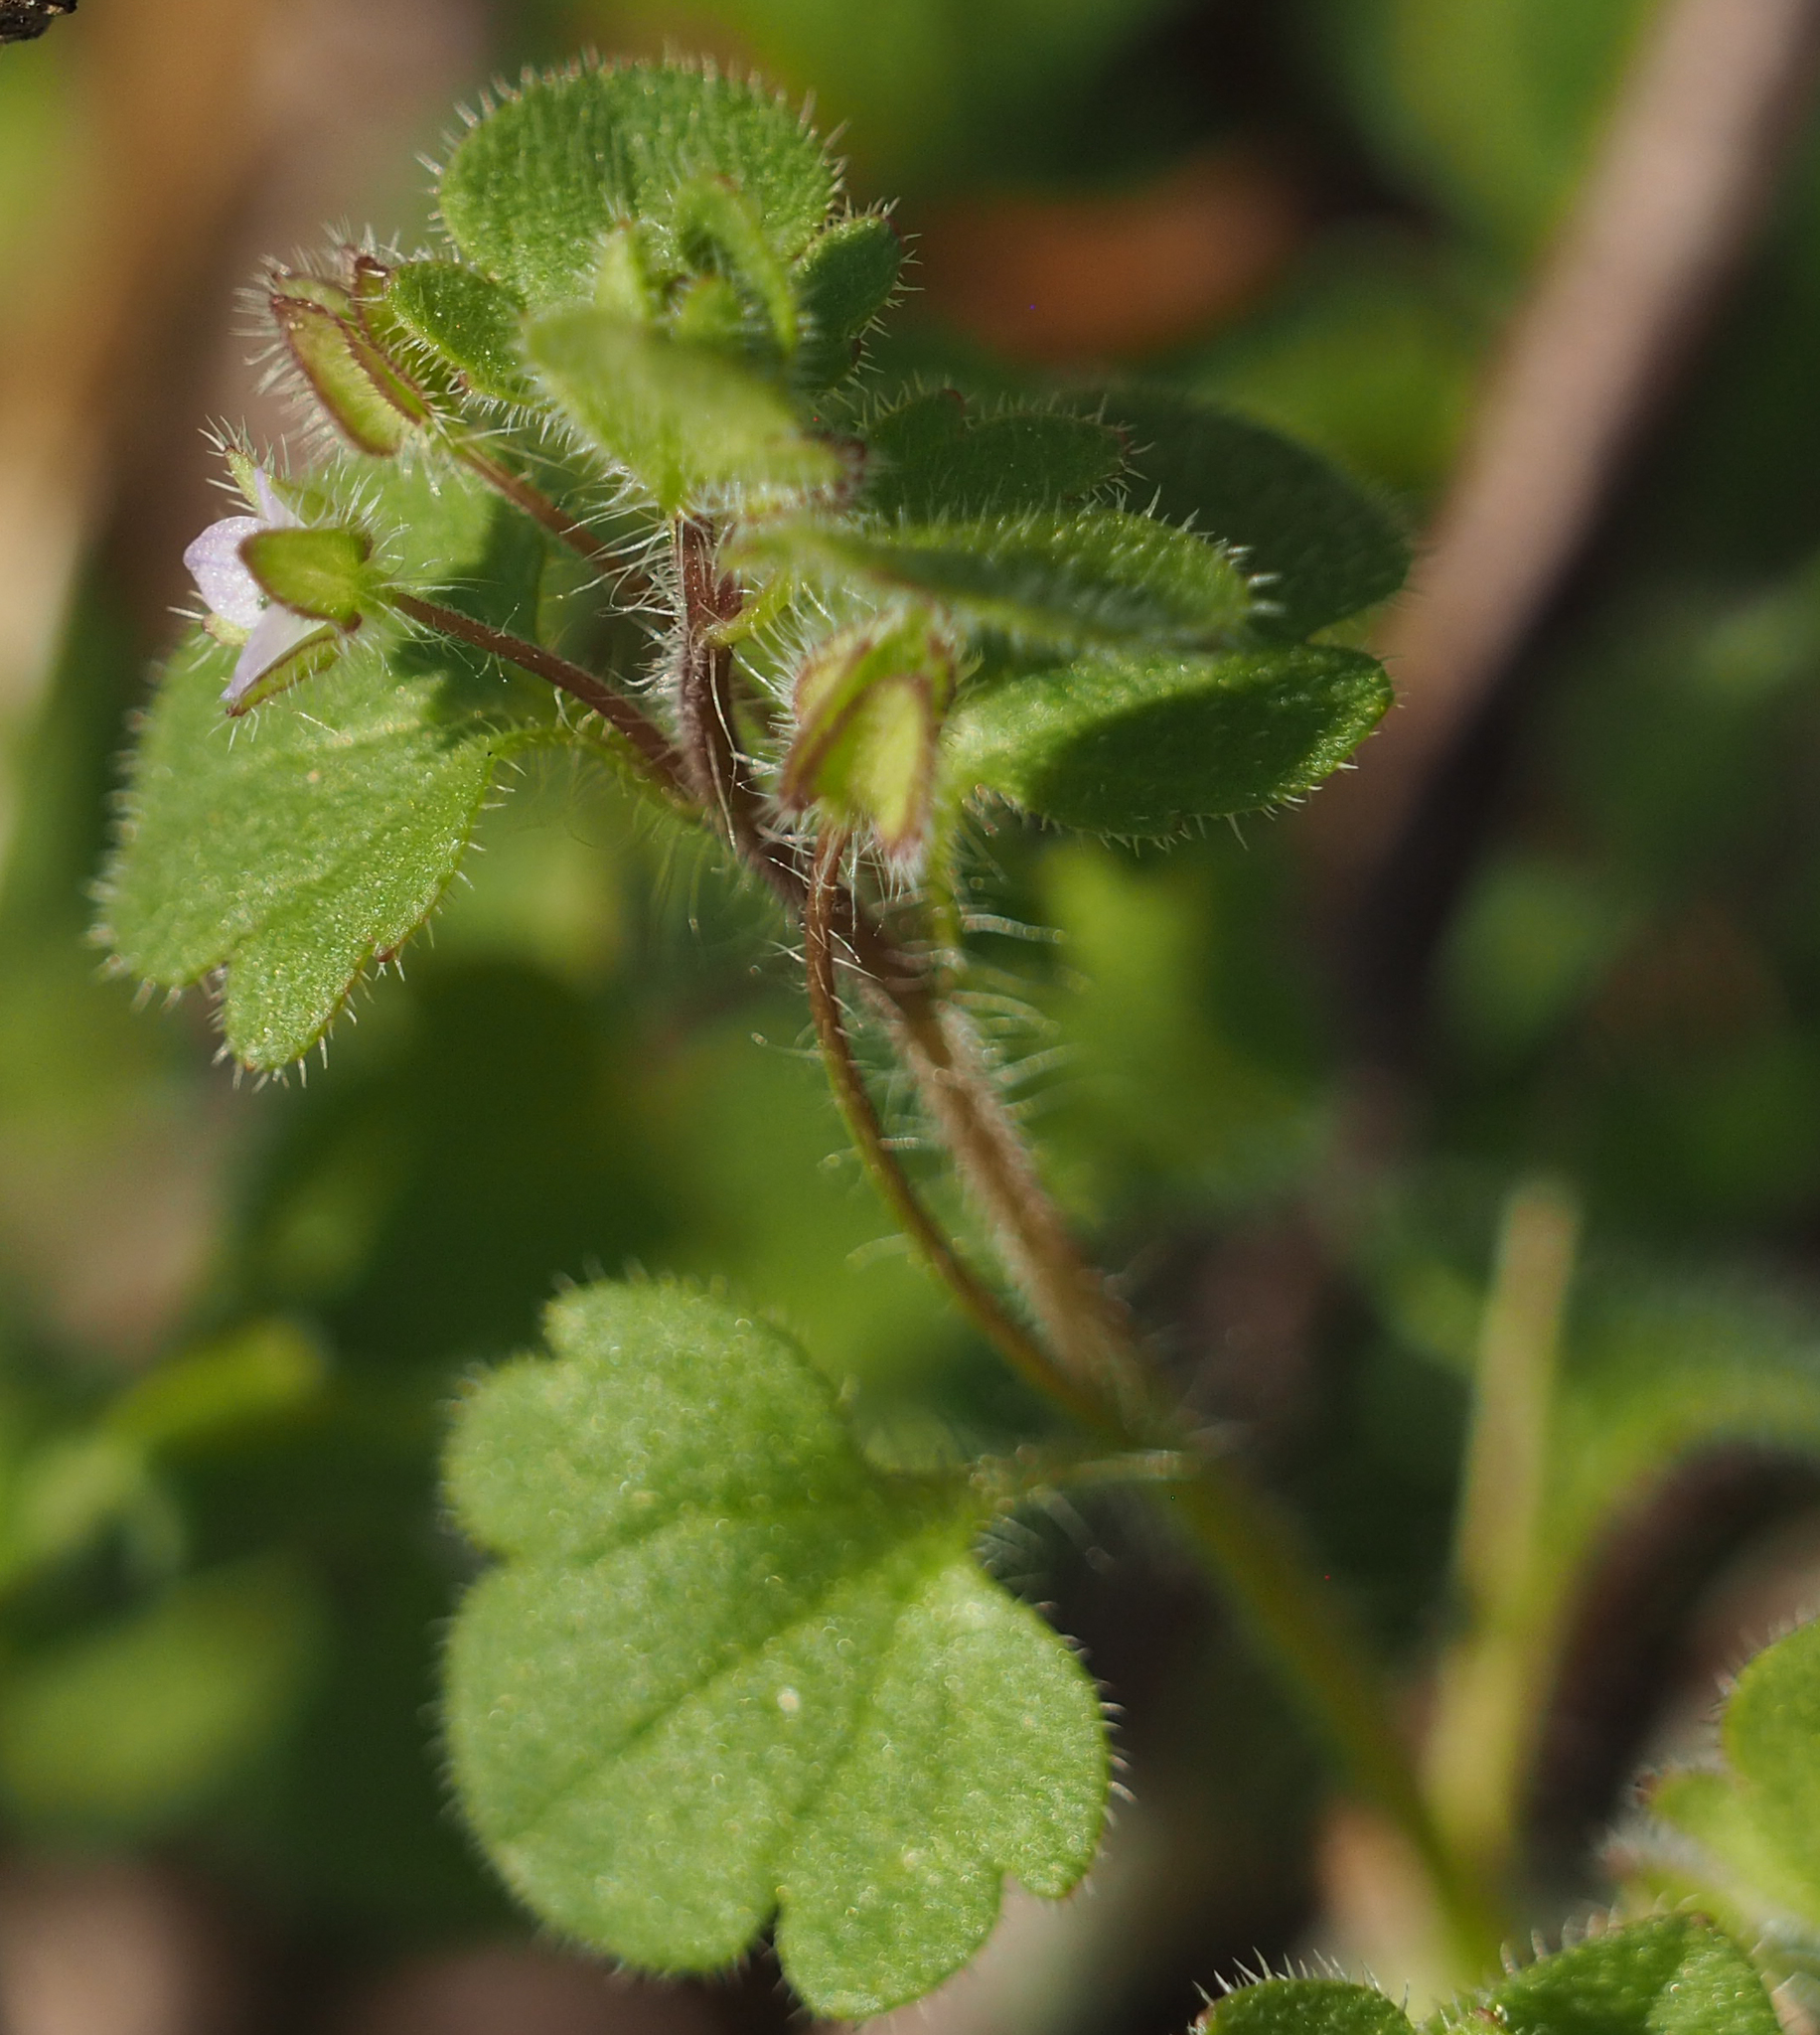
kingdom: Plantae
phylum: Tracheophyta
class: Magnoliopsida
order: Lamiales
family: Plantaginaceae
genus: Veronica
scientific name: Veronica sublobata
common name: False ivy-leaved speedwell
